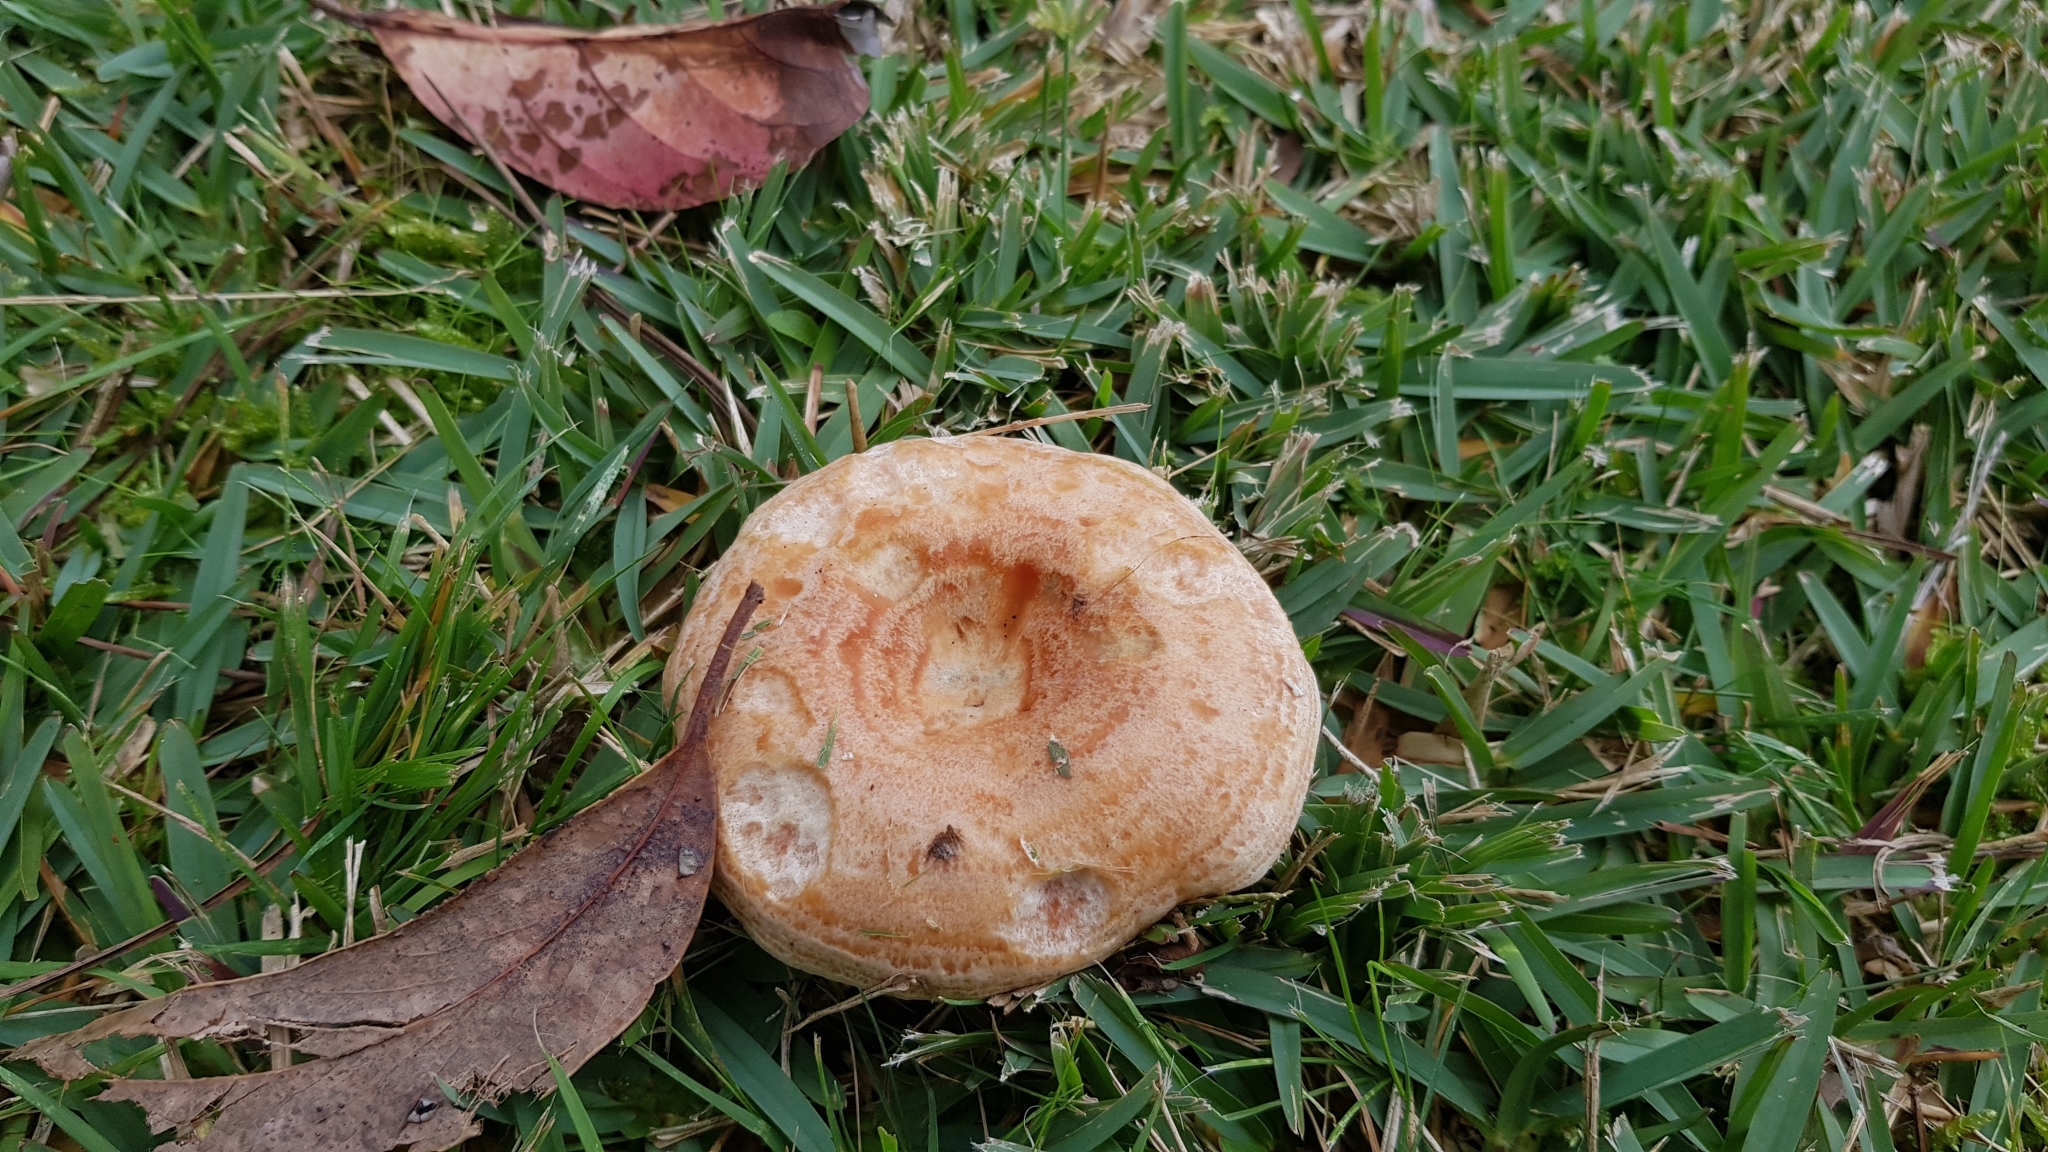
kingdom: Fungi
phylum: Basidiomycota
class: Agaricomycetes
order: Russulales
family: Russulaceae
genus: Lactarius
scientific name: Lactarius deliciosus
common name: Saffron milk-cap
